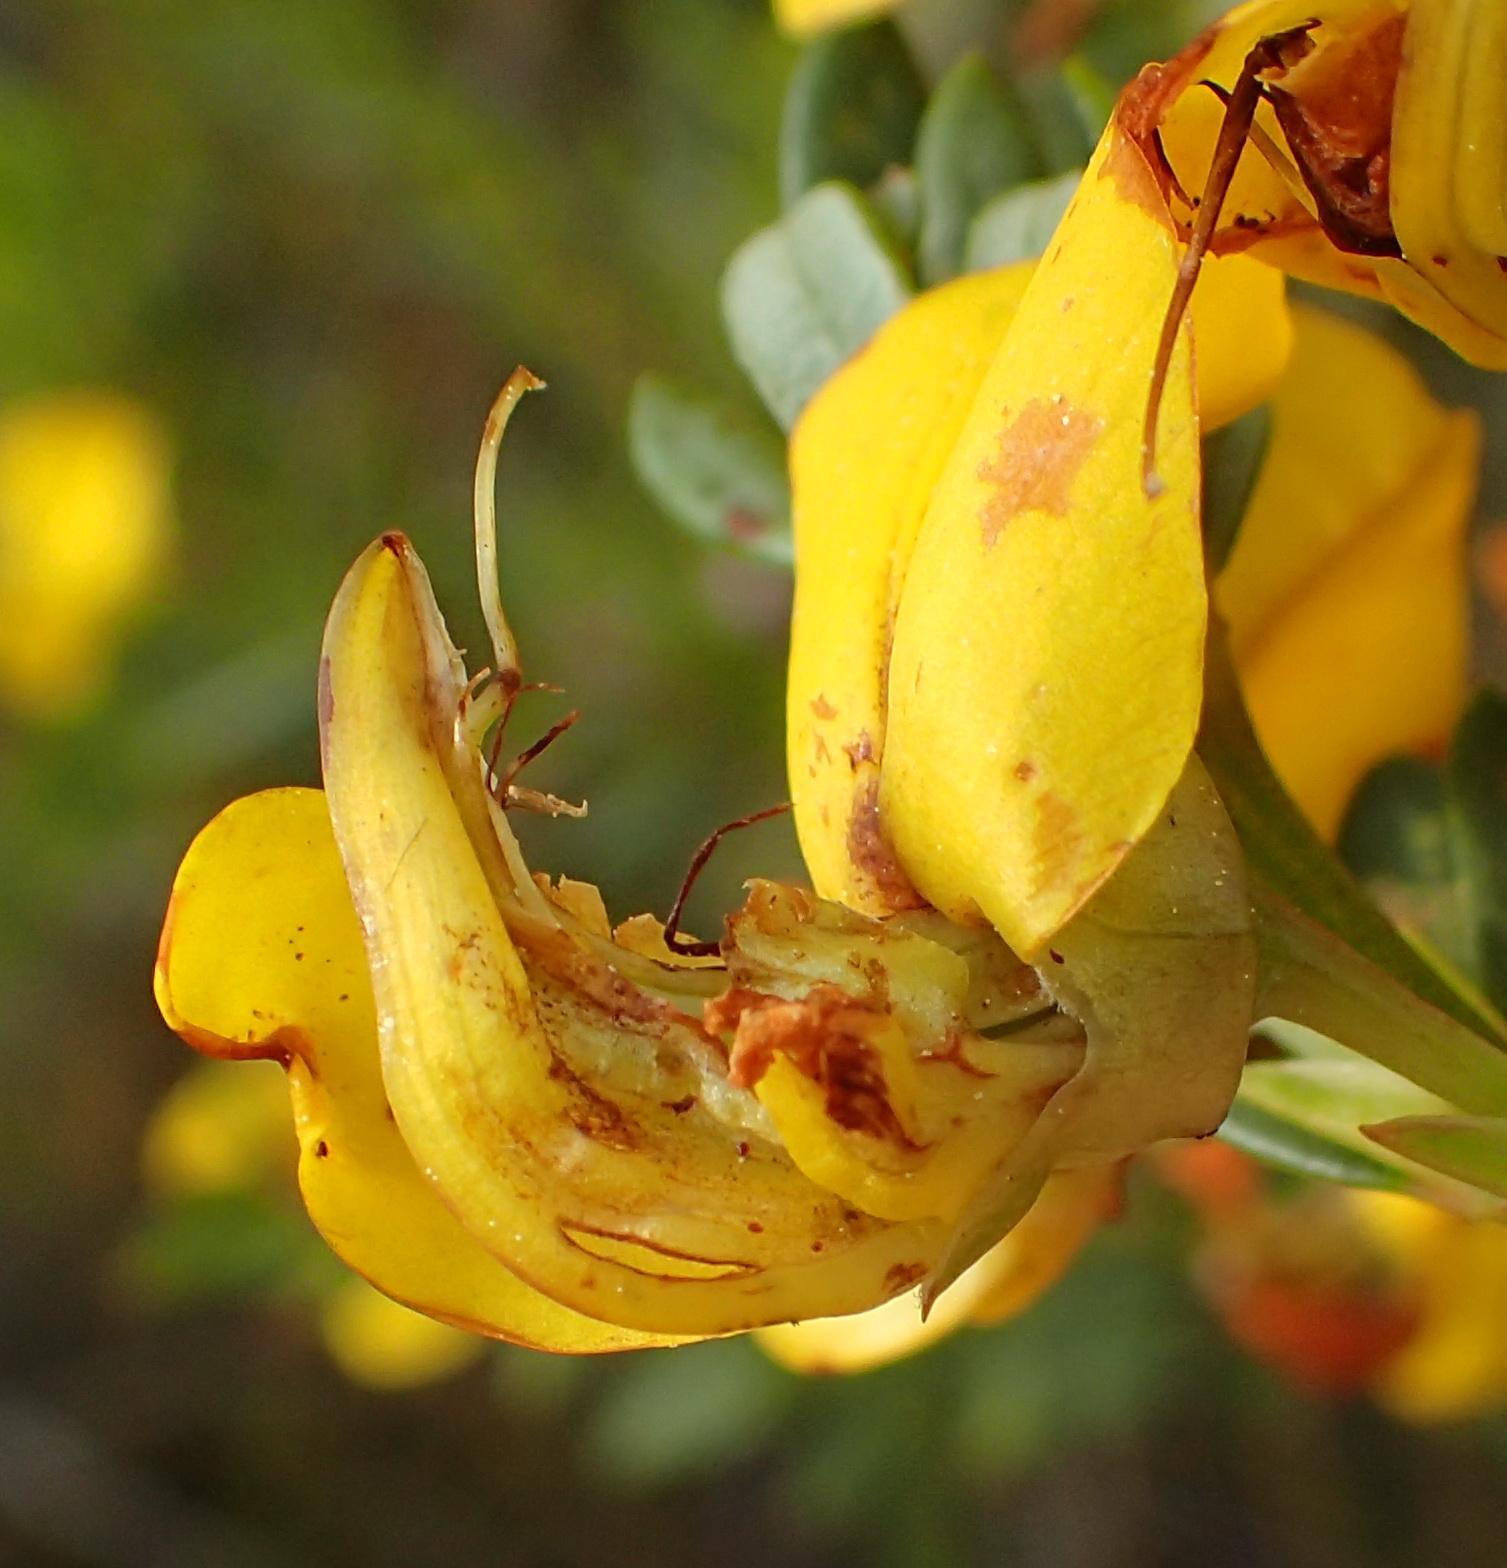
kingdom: Plantae
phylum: Tracheophyta
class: Magnoliopsida
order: Fabales
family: Fabaceae
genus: Cyclopia
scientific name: Cyclopia subternata
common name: Honeybush tea
